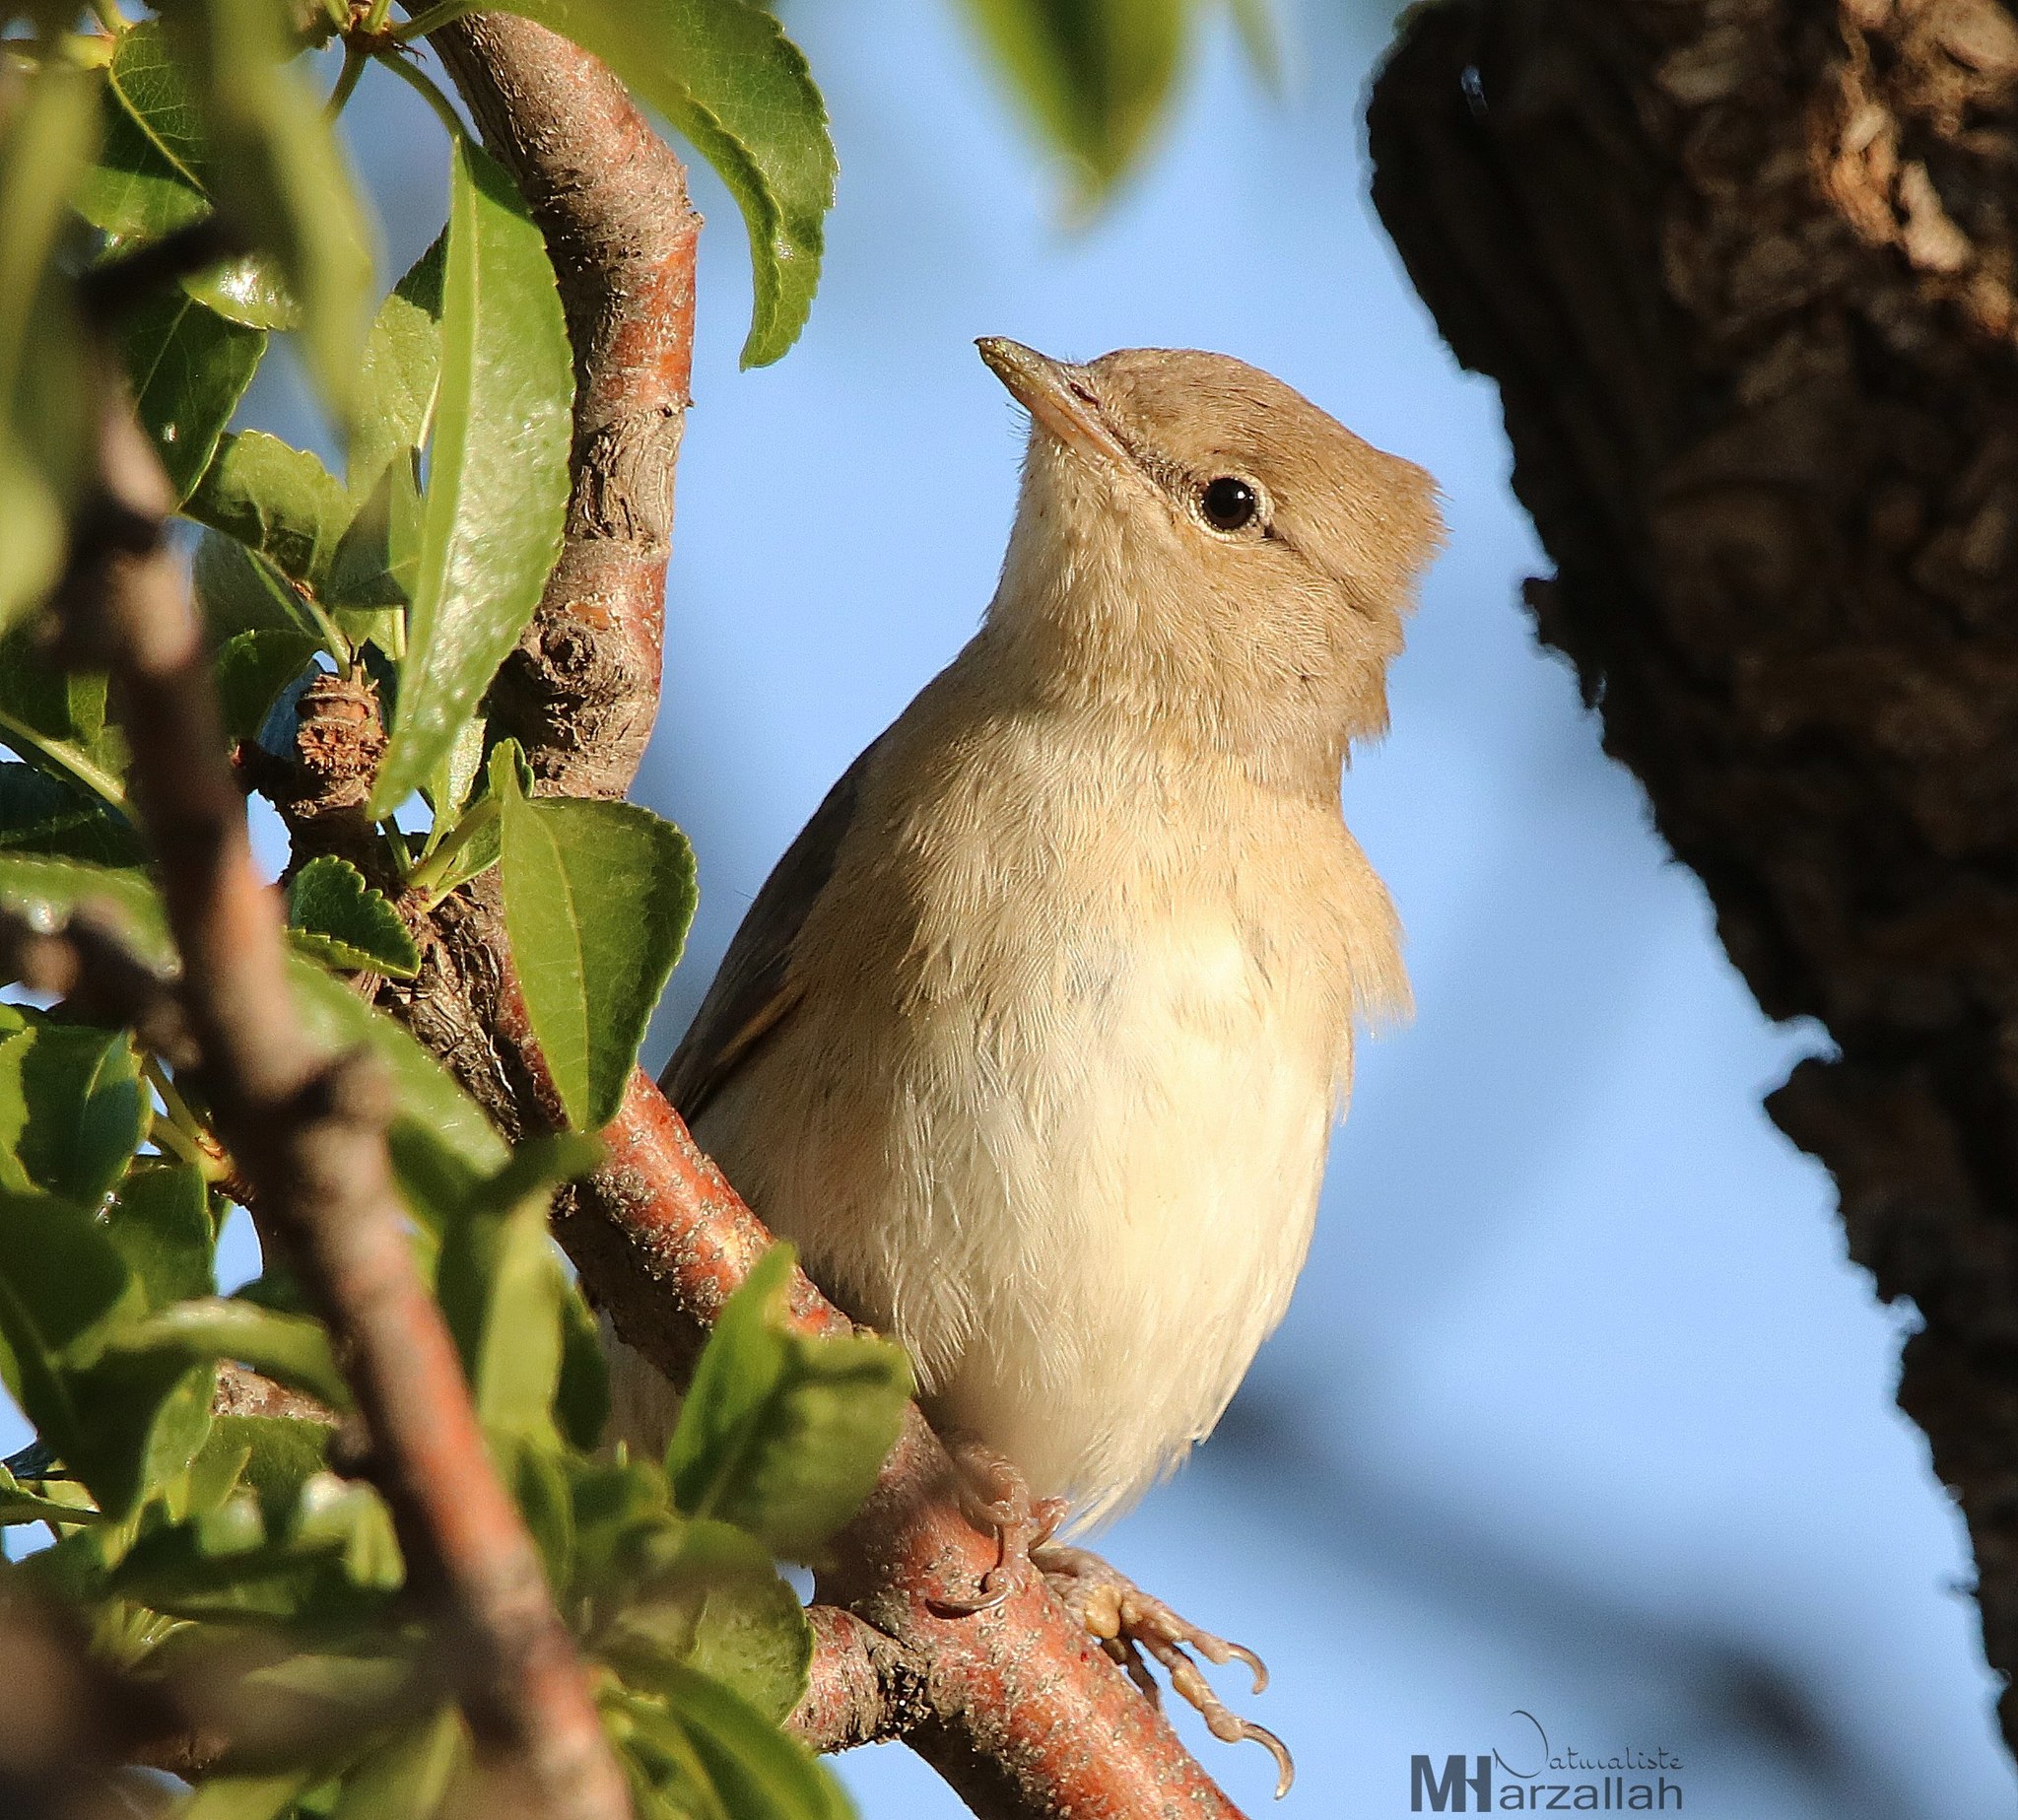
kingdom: Animalia
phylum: Chordata
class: Aves
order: Passeriformes
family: Sylviidae
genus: Sylvia
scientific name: Sylvia borin
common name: Garden warbler
